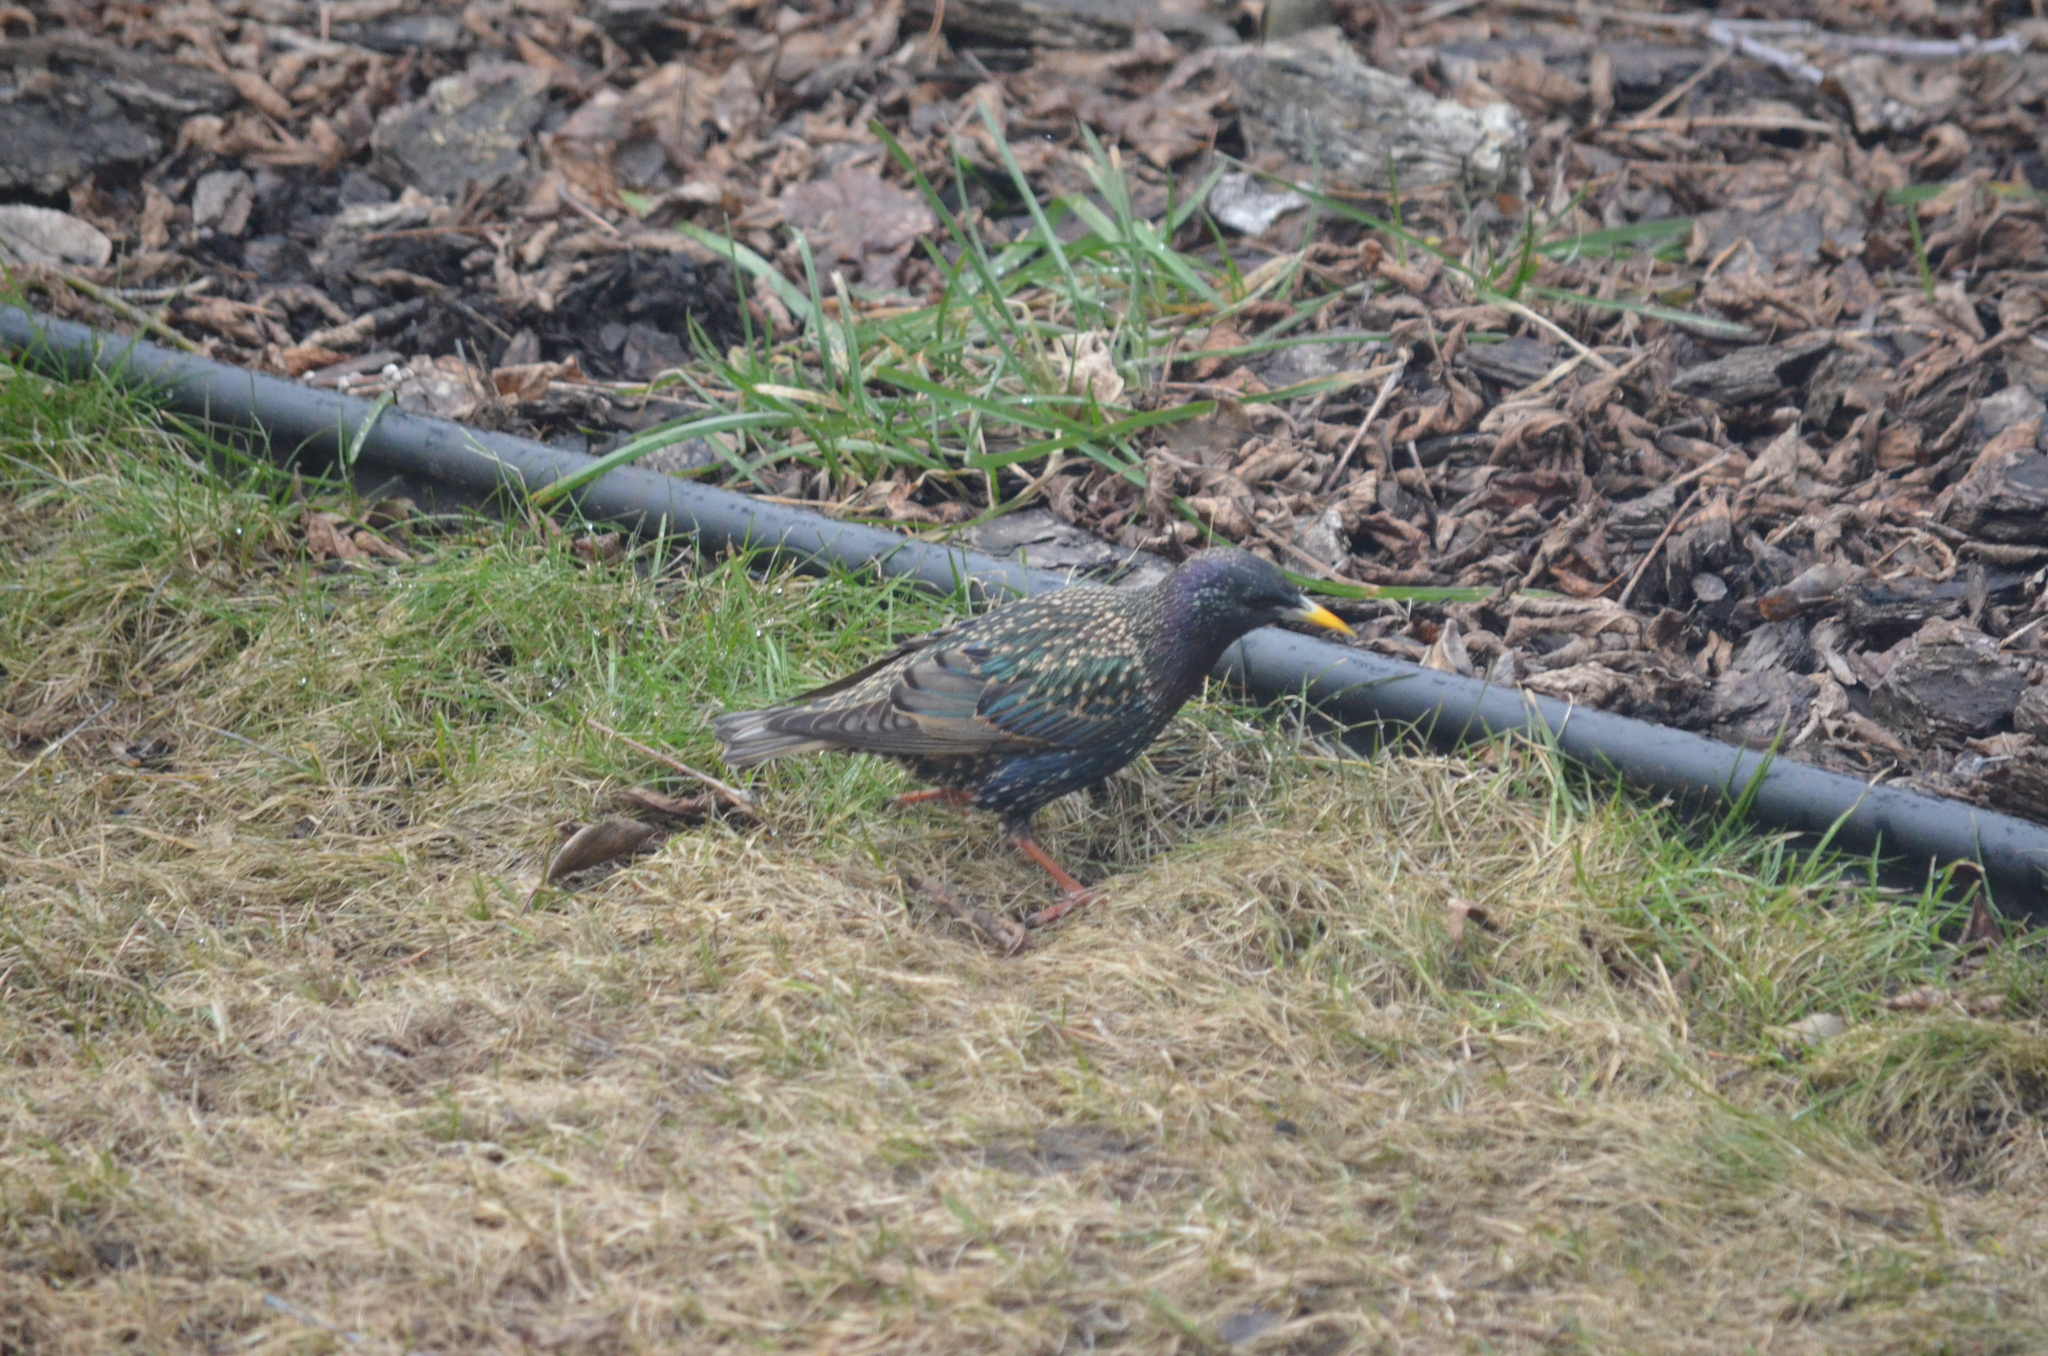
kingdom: Animalia
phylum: Chordata
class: Aves
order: Passeriformes
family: Sturnidae
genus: Sturnus
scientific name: Sturnus vulgaris
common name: Common starling
